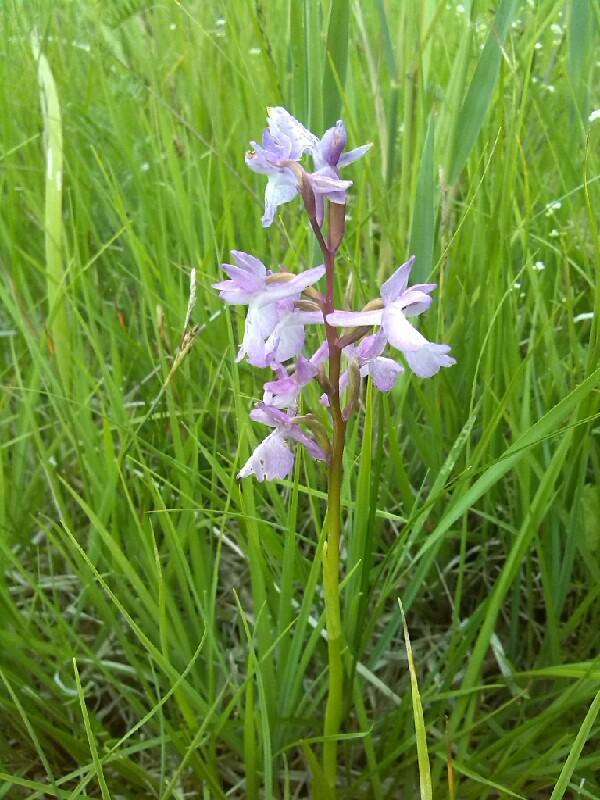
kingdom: Plantae
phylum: Tracheophyta
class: Liliopsida
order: Asparagales
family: Orchidaceae
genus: Anacamptis
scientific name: Anacamptis palustris
